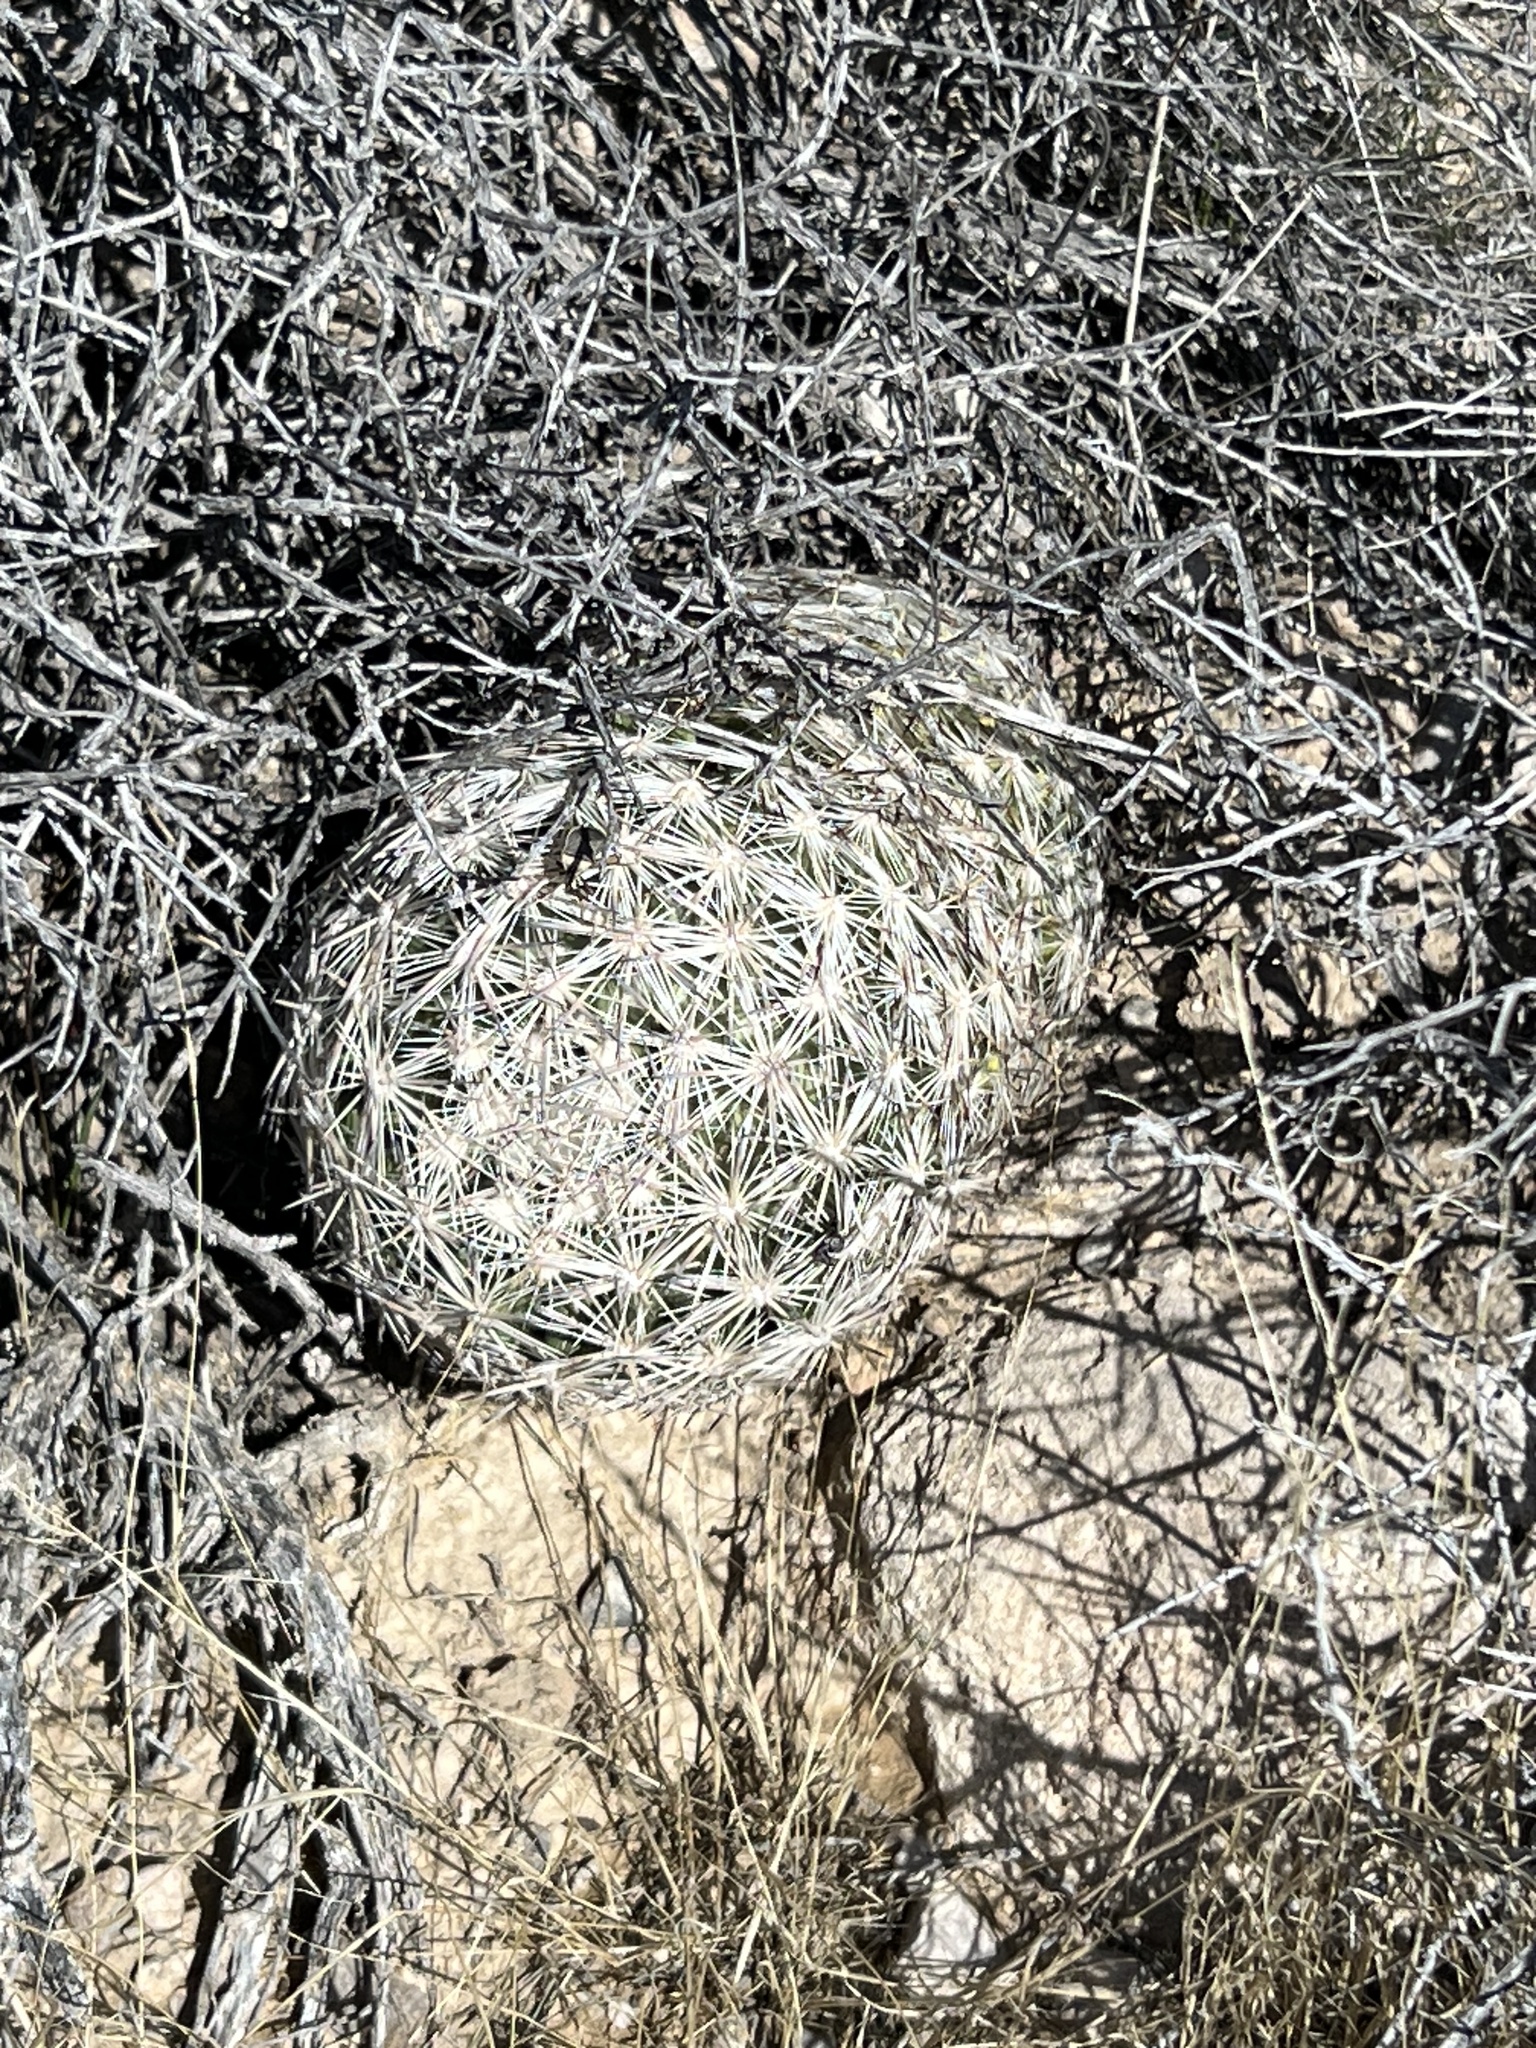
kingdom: Plantae
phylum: Tracheophyta
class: Magnoliopsida
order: Caryophyllales
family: Cactaceae
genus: Pelecyphora
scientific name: Pelecyphora dasyacantha
